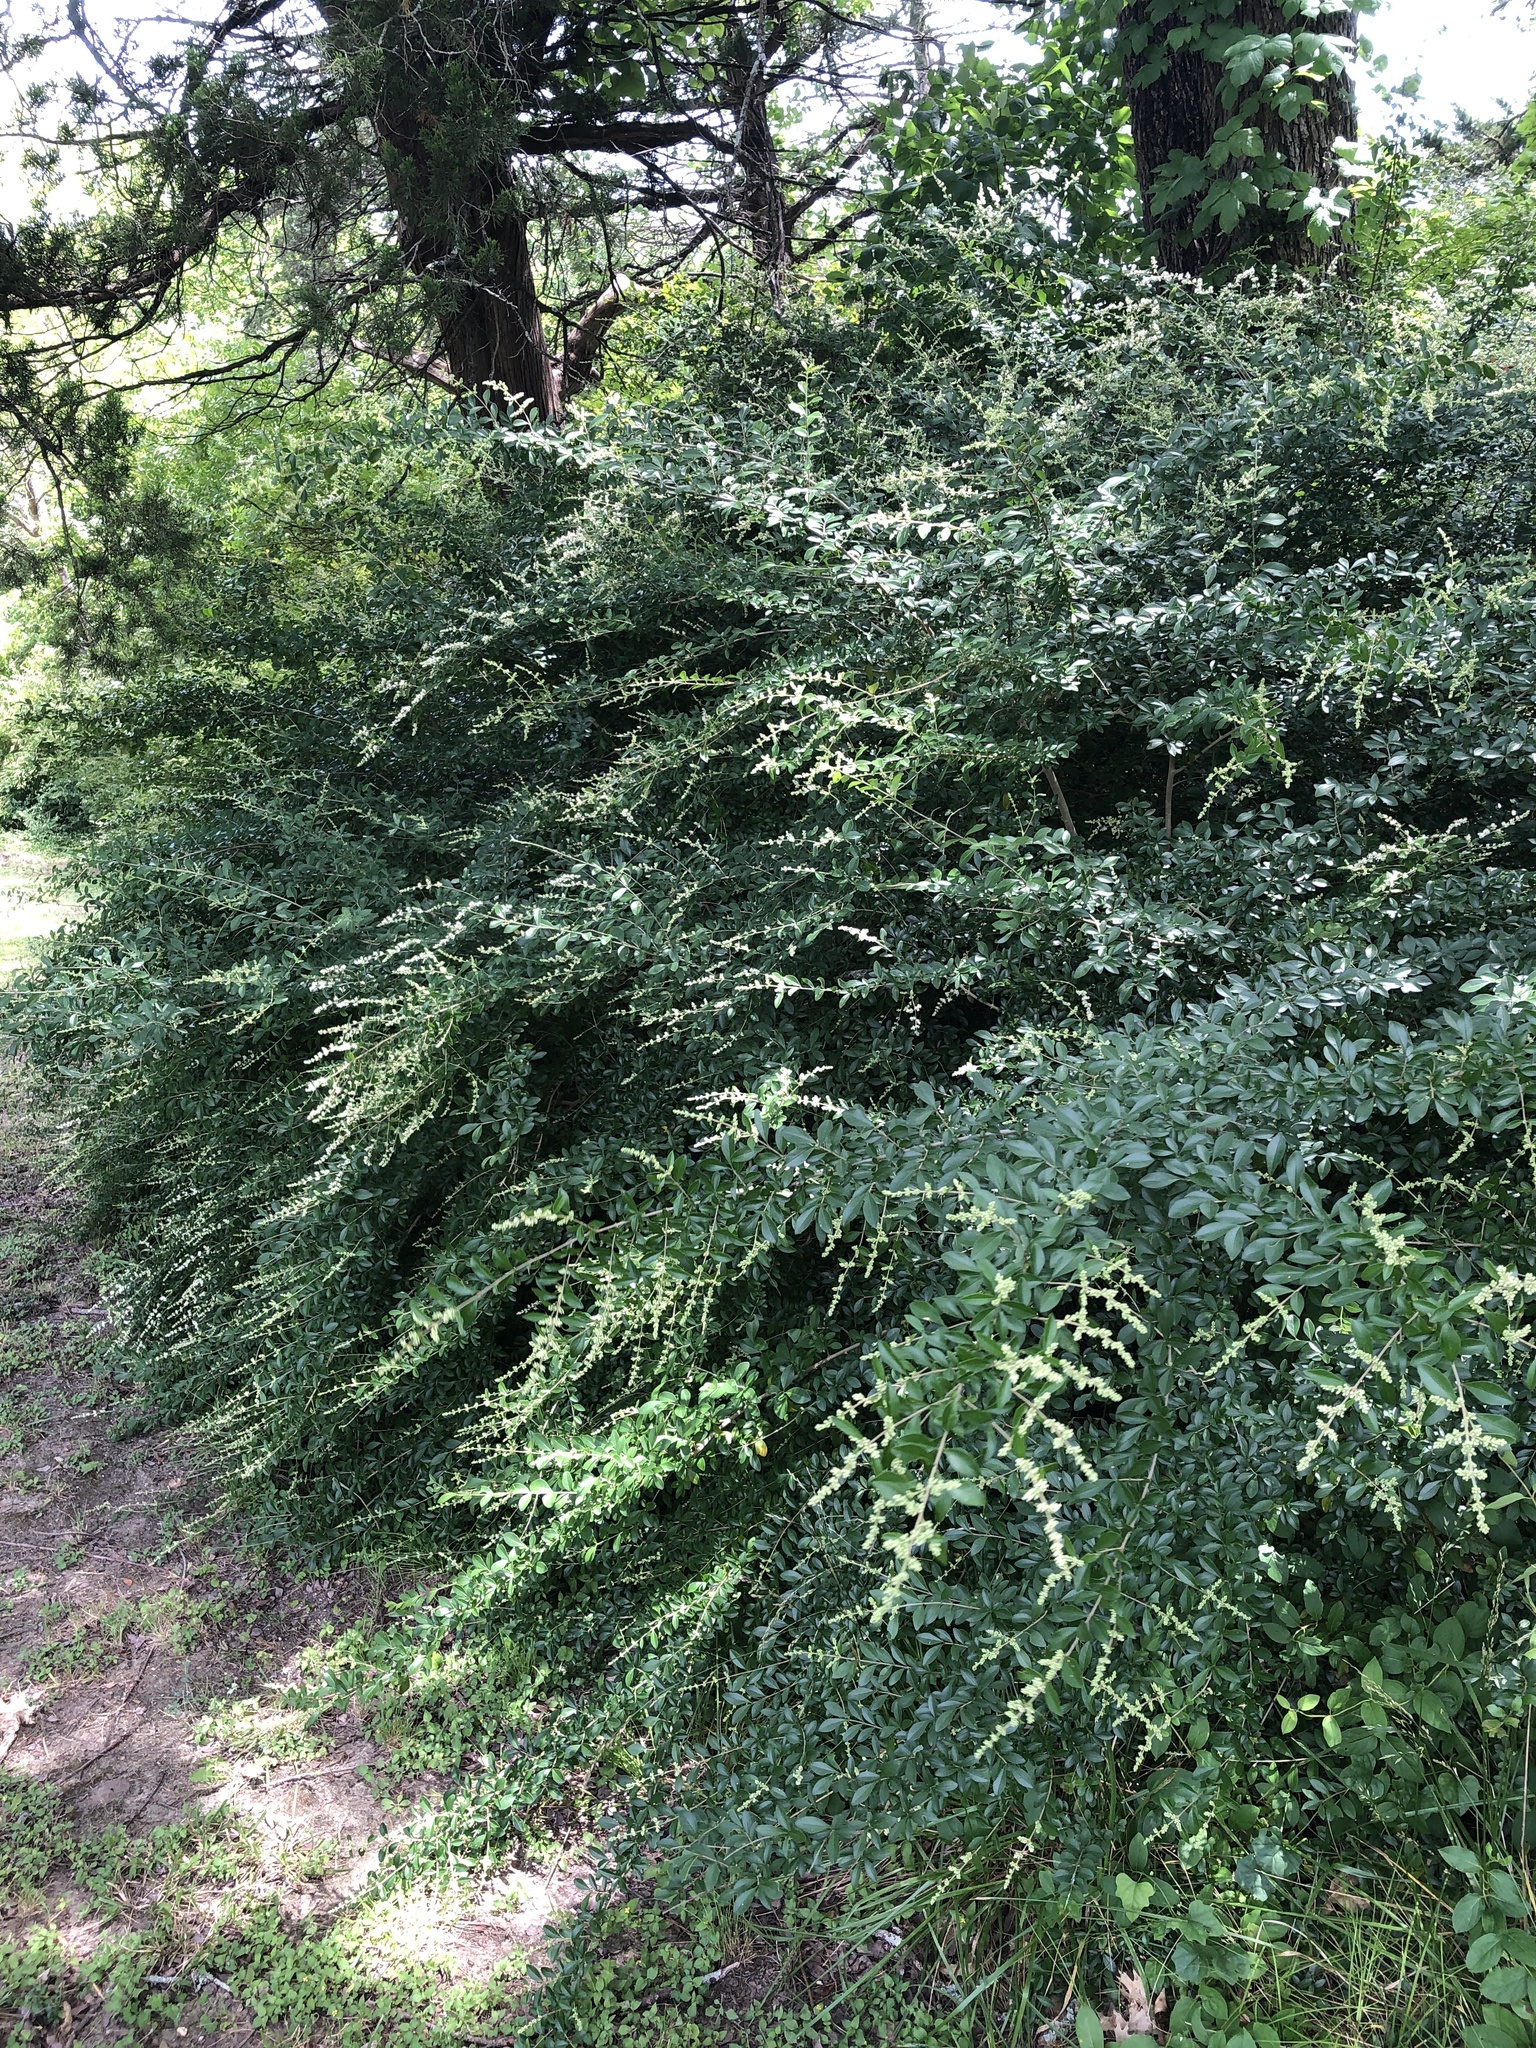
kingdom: Plantae
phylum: Tracheophyta
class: Magnoliopsida
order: Lamiales
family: Oleaceae
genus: Ligustrum
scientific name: Ligustrum quihoui
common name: Waxyleaf privet
